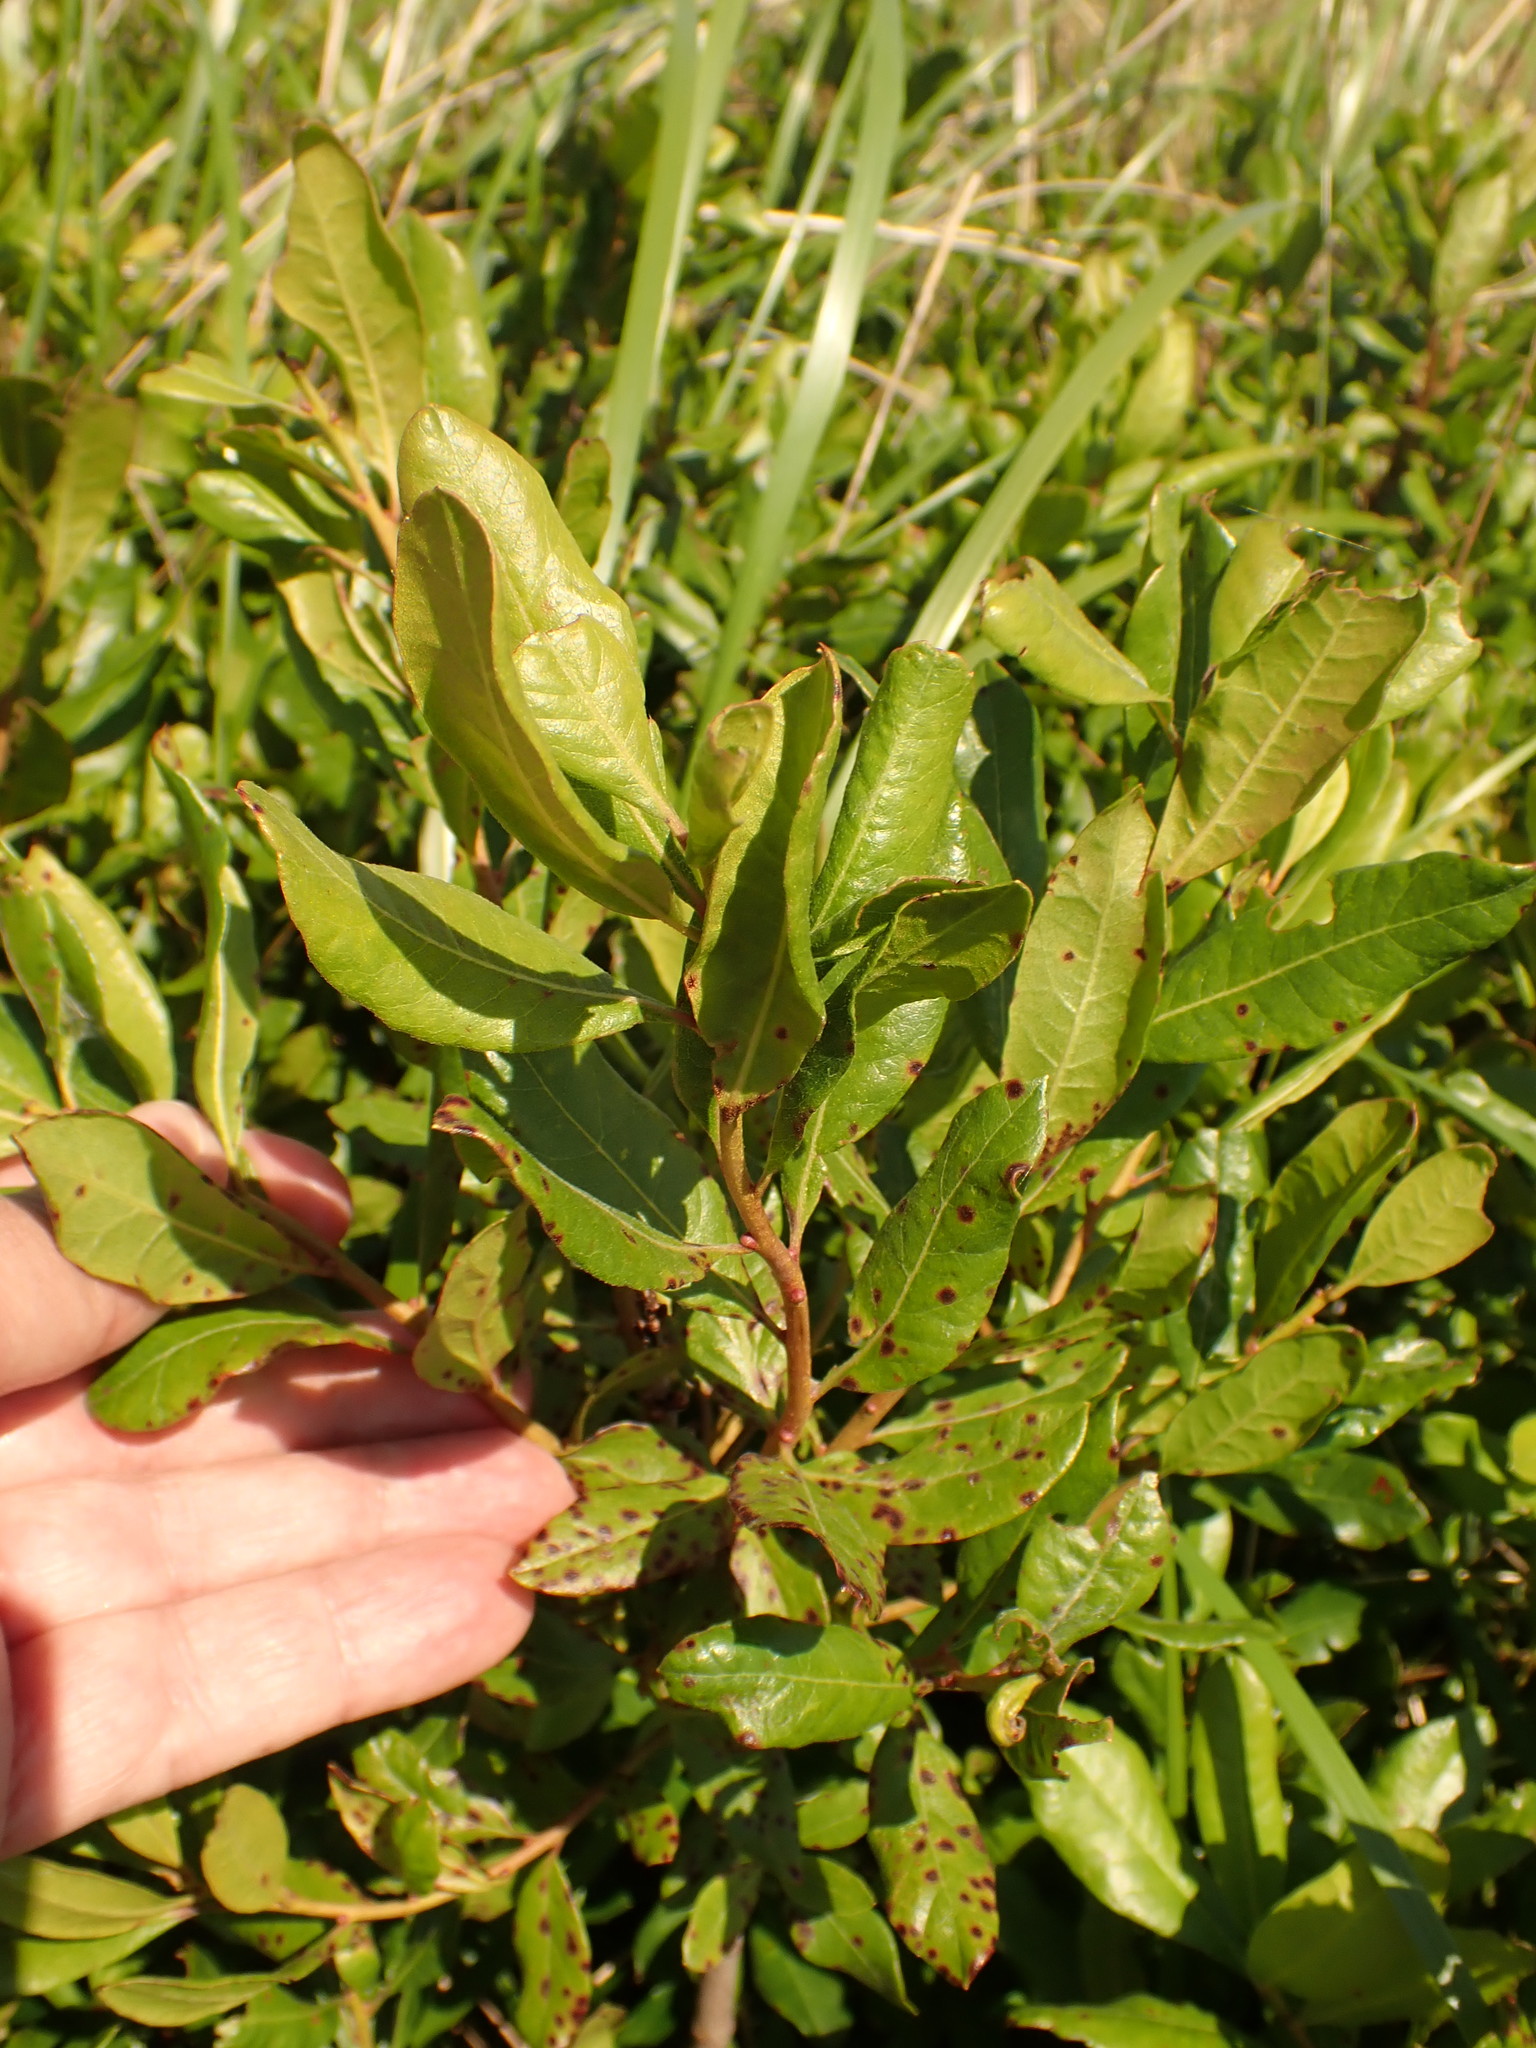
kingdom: Plantae
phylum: Tracheophyta
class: Magnoliopsida
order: Fagales
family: Myricaceae
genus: Morella
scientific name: Morella pensylvanica
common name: Northern bayberry
